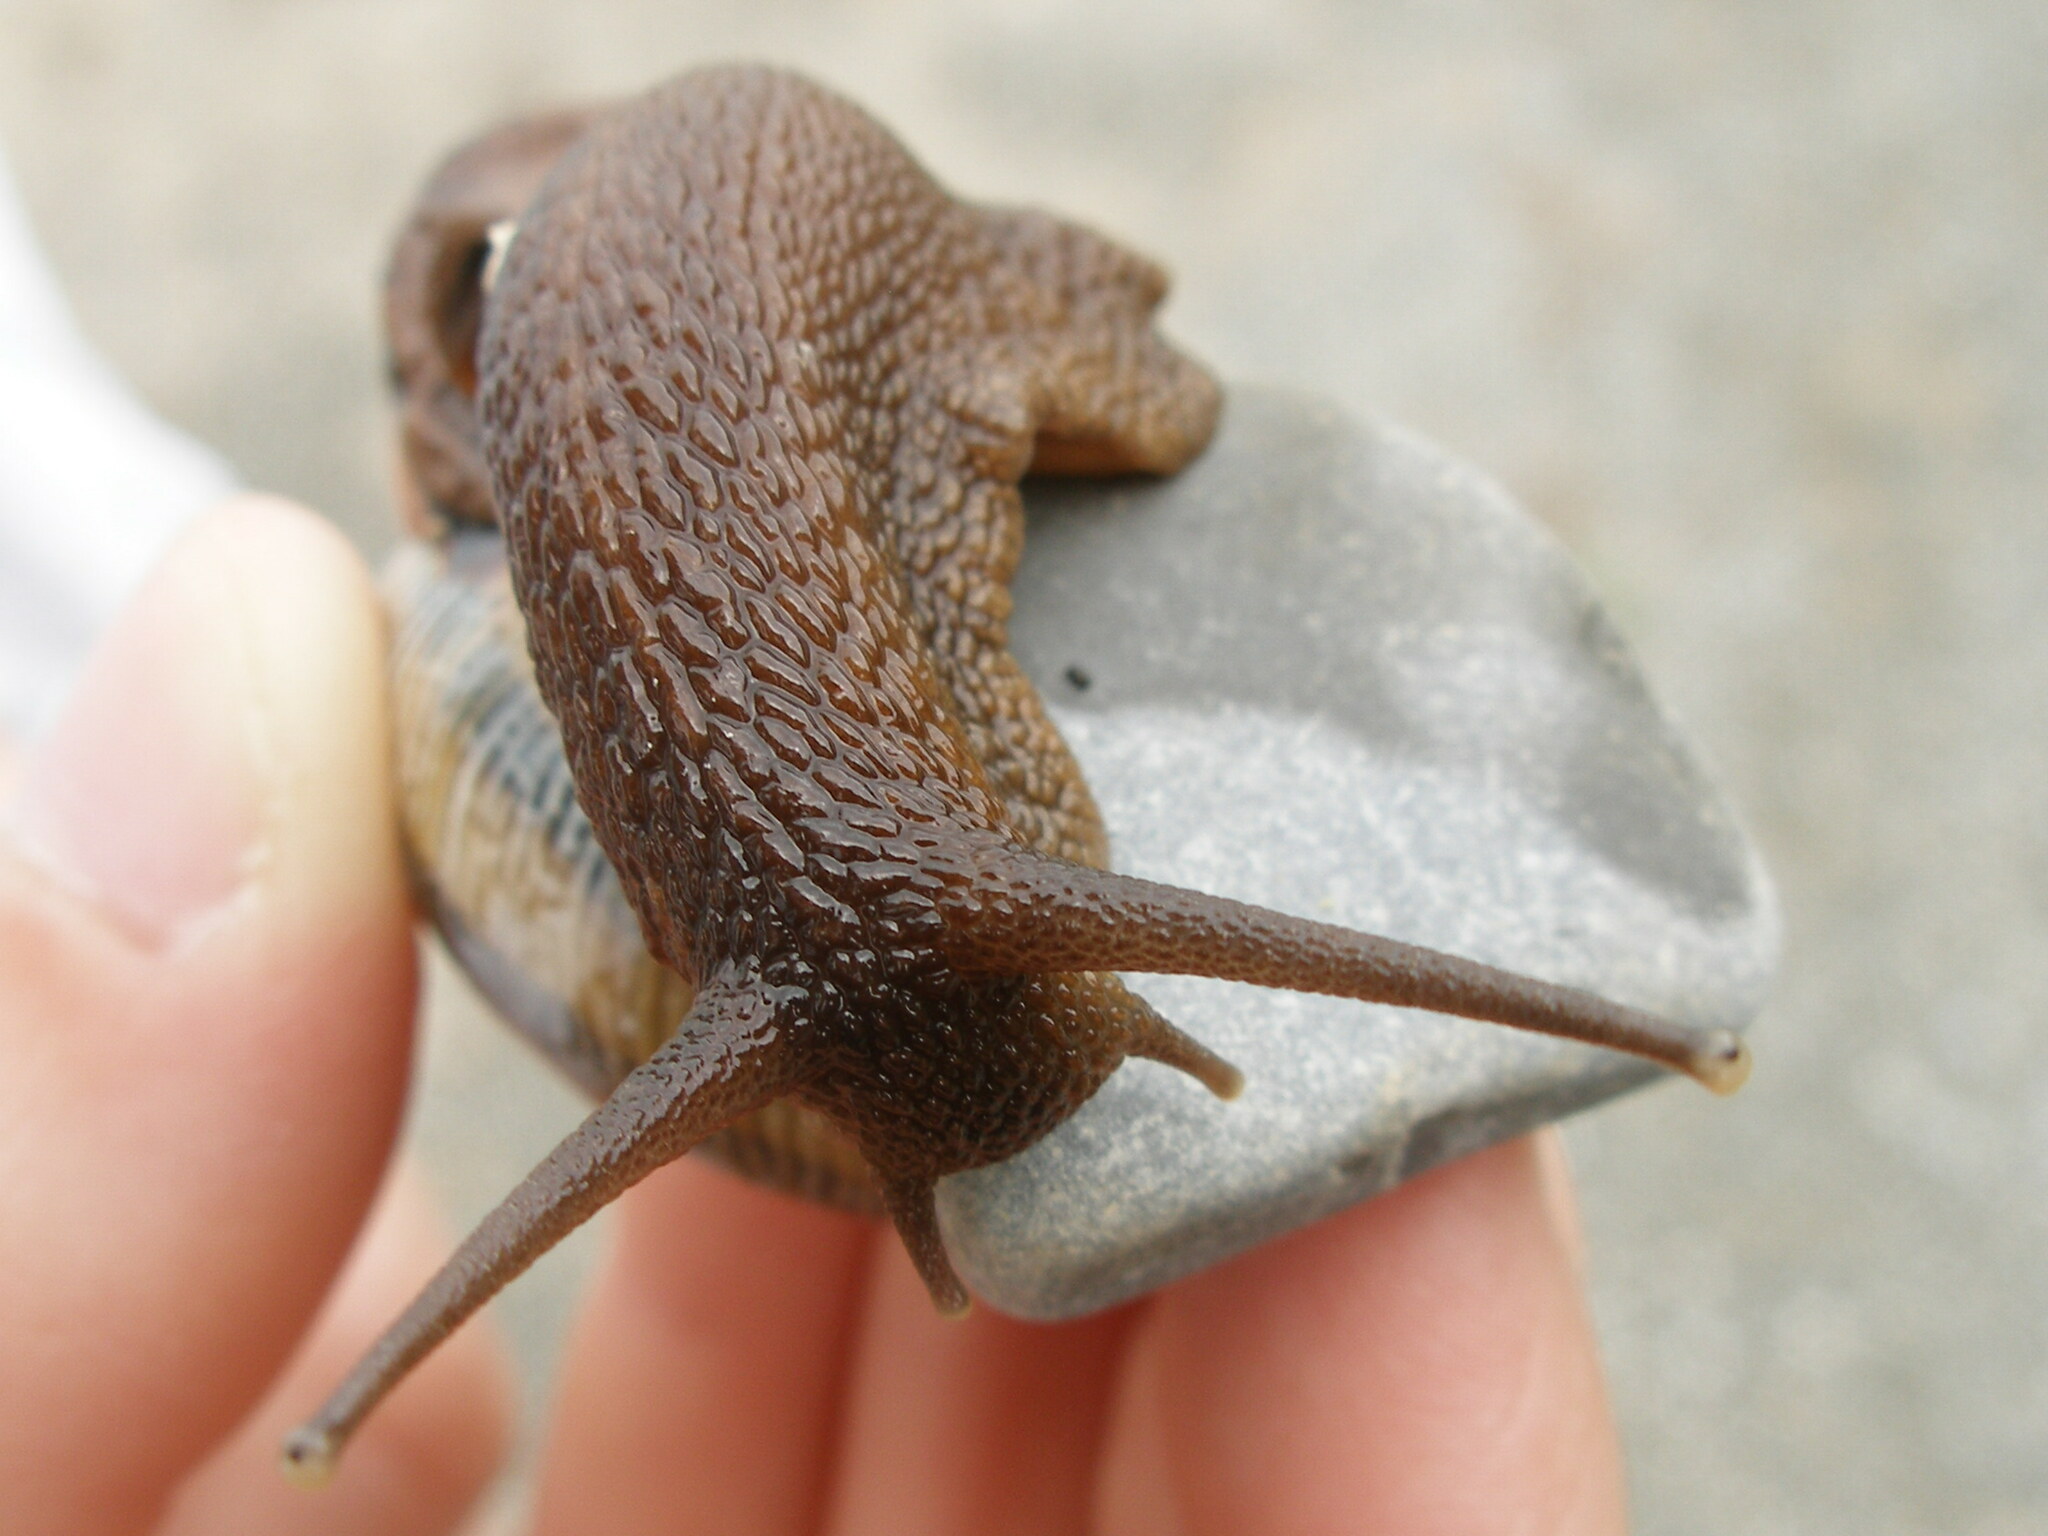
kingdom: Animalia
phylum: Mollusca
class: Gastropoda
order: Stylommatophora
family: Helicidae
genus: Caucasotachea
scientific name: Caucasotachea atrolabiata
